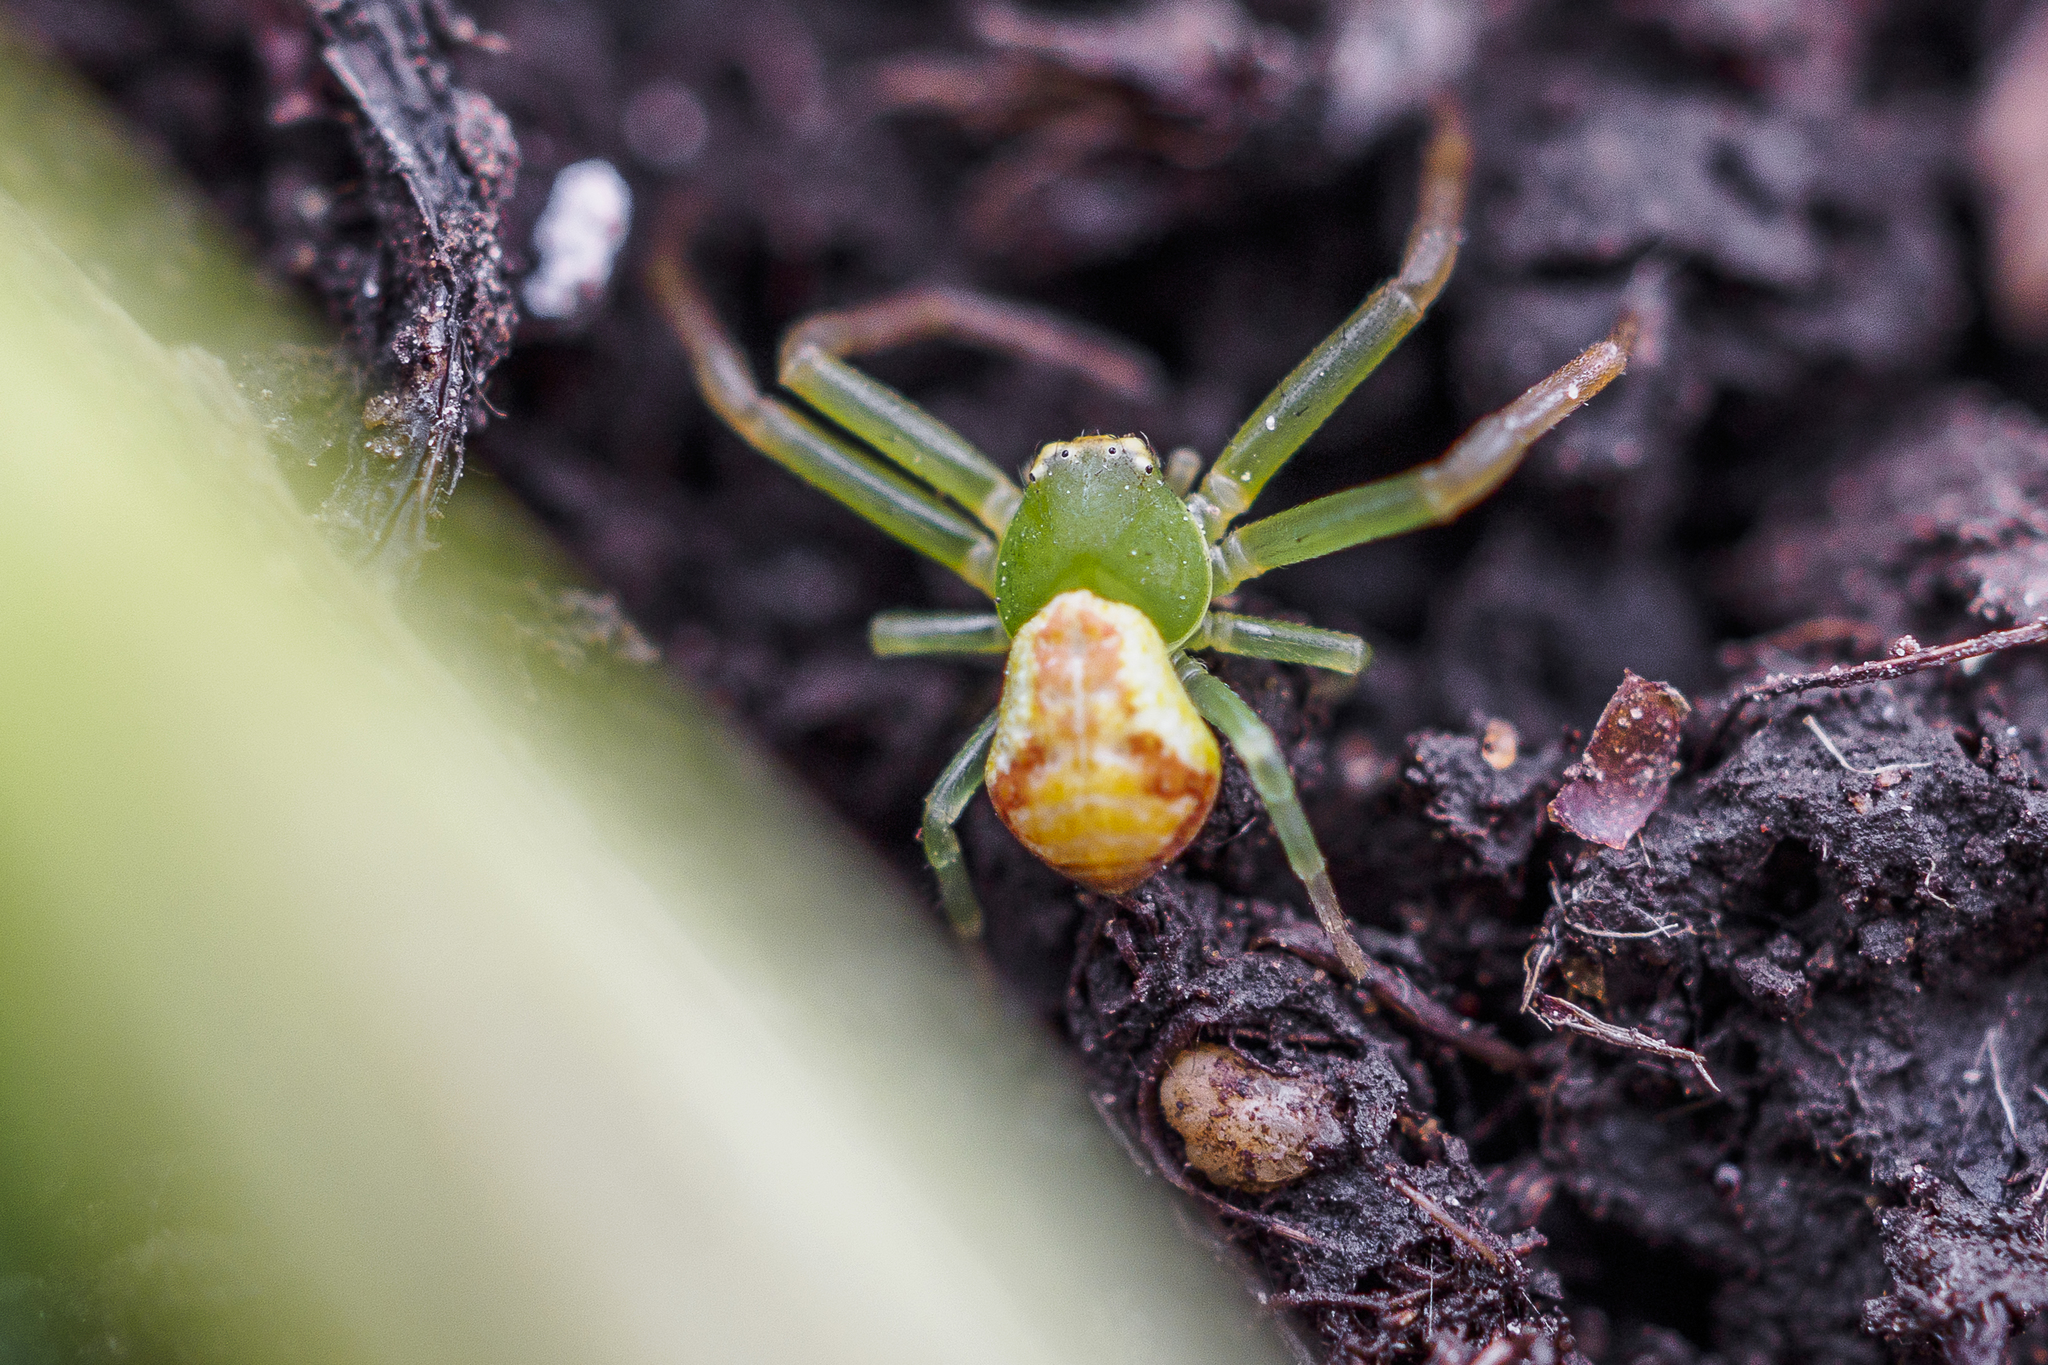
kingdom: Animalia
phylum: Arthropoda
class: Arachnida
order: Araneae
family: Thomisidae
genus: Ebrechtella
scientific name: Ebrechtella tricuspidata
